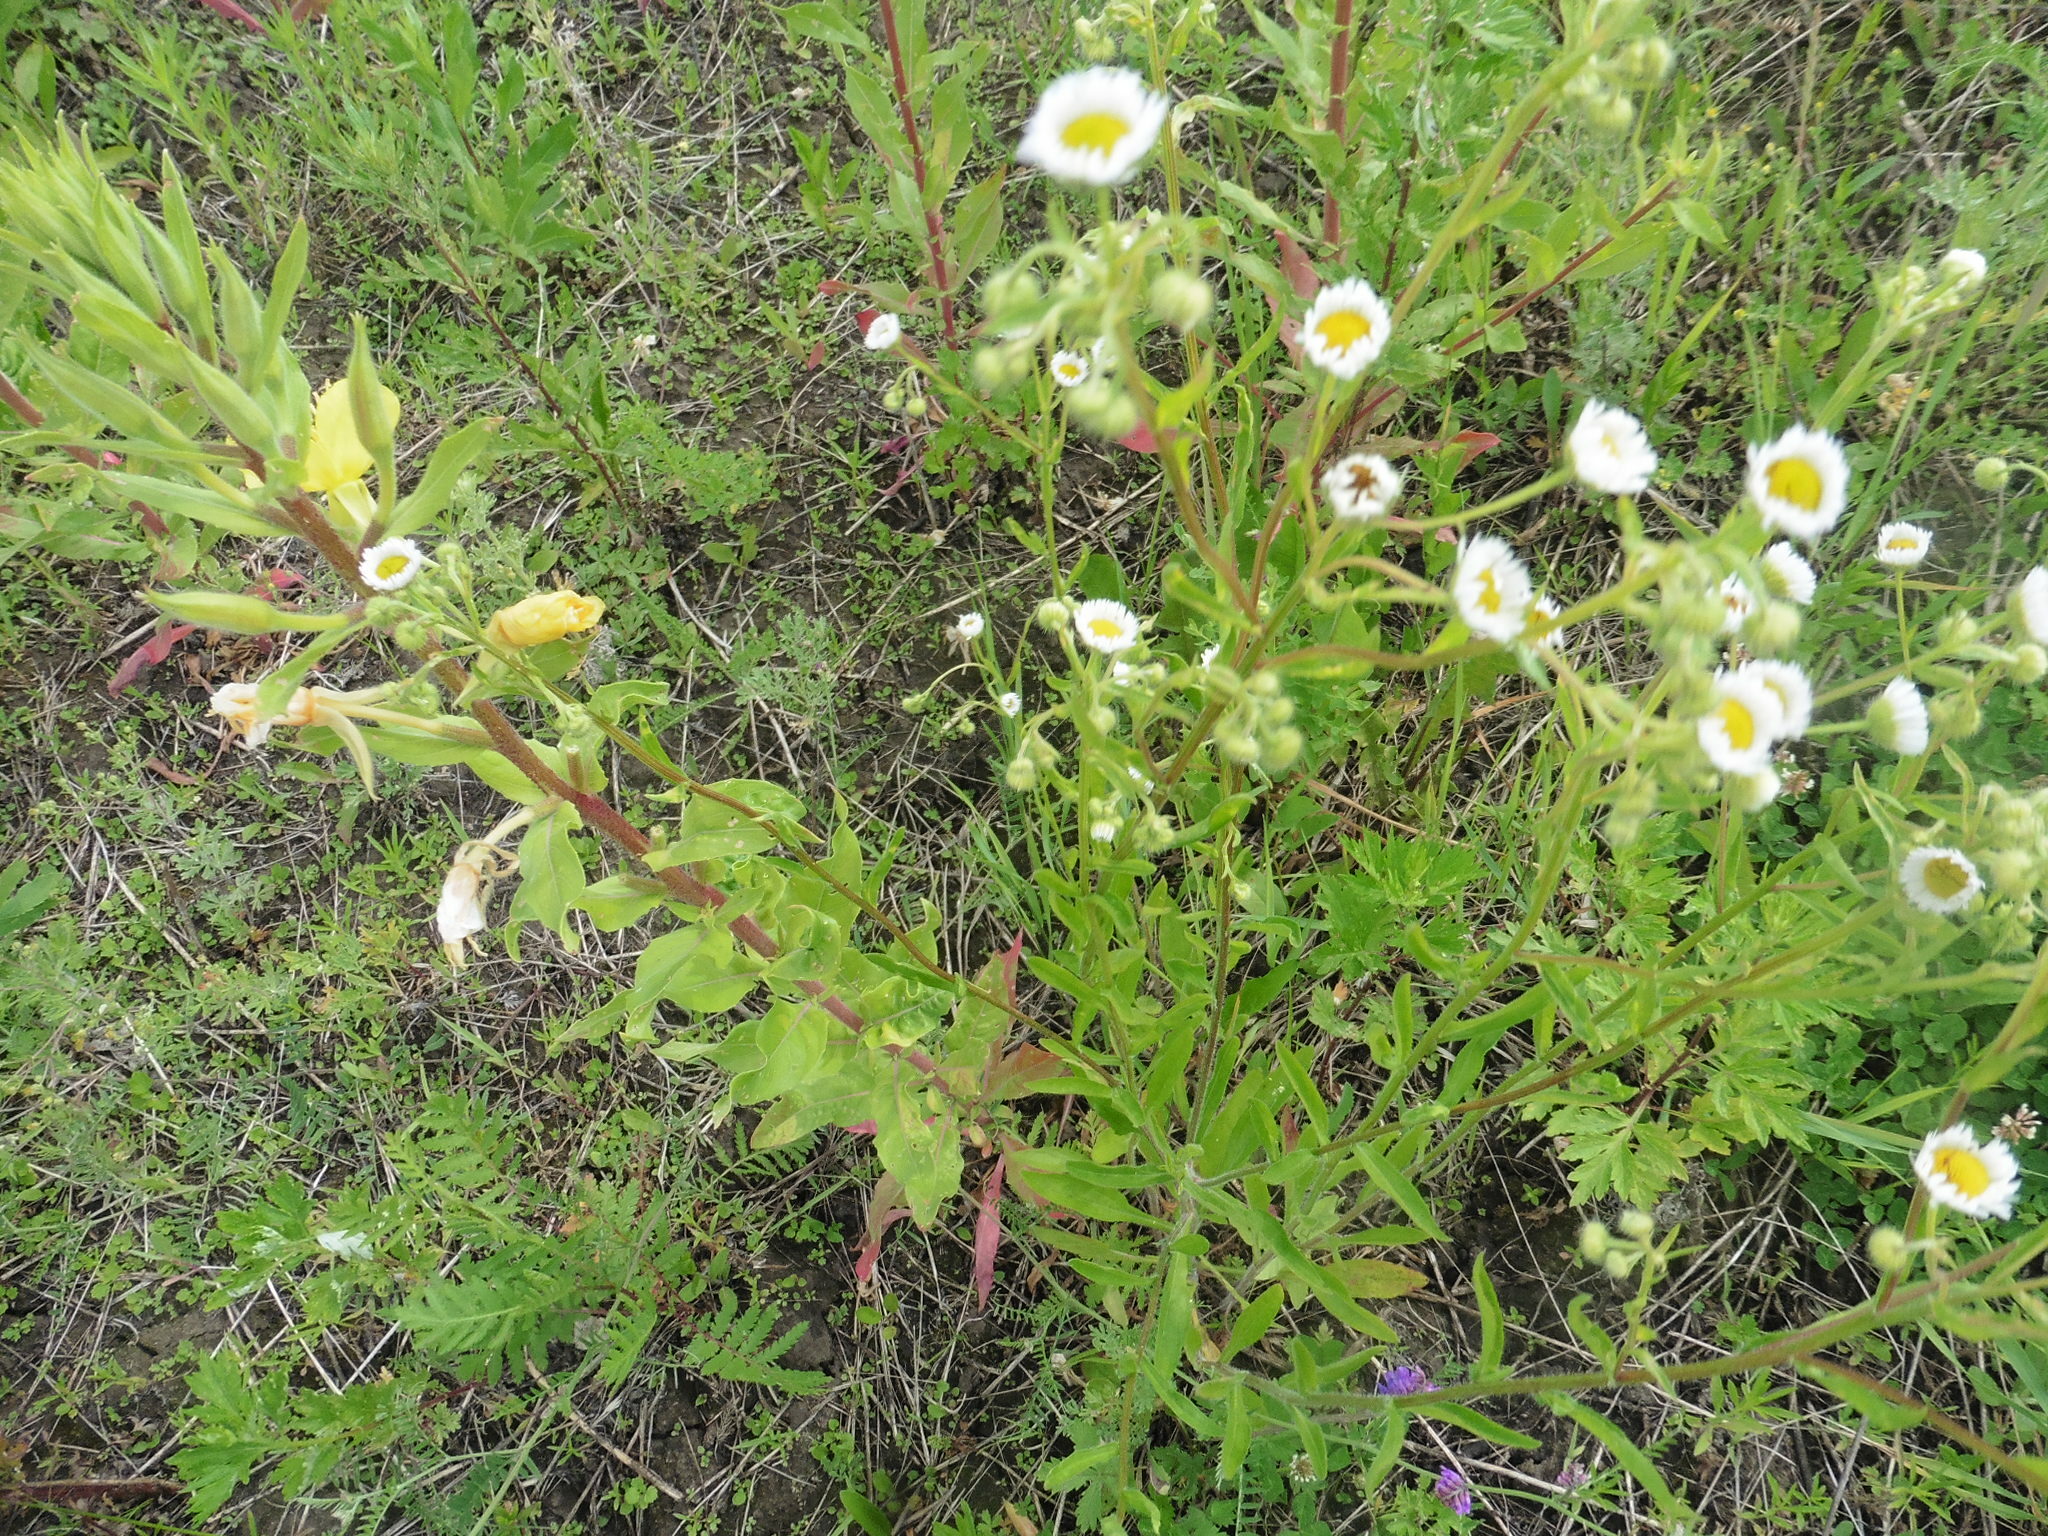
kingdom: Plantae
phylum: Tracheophyta
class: Magnoliopsida
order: Asterales
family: Asteraceae
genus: Erigeron
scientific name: Erigeron strigosus
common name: Common eastern fleabane
